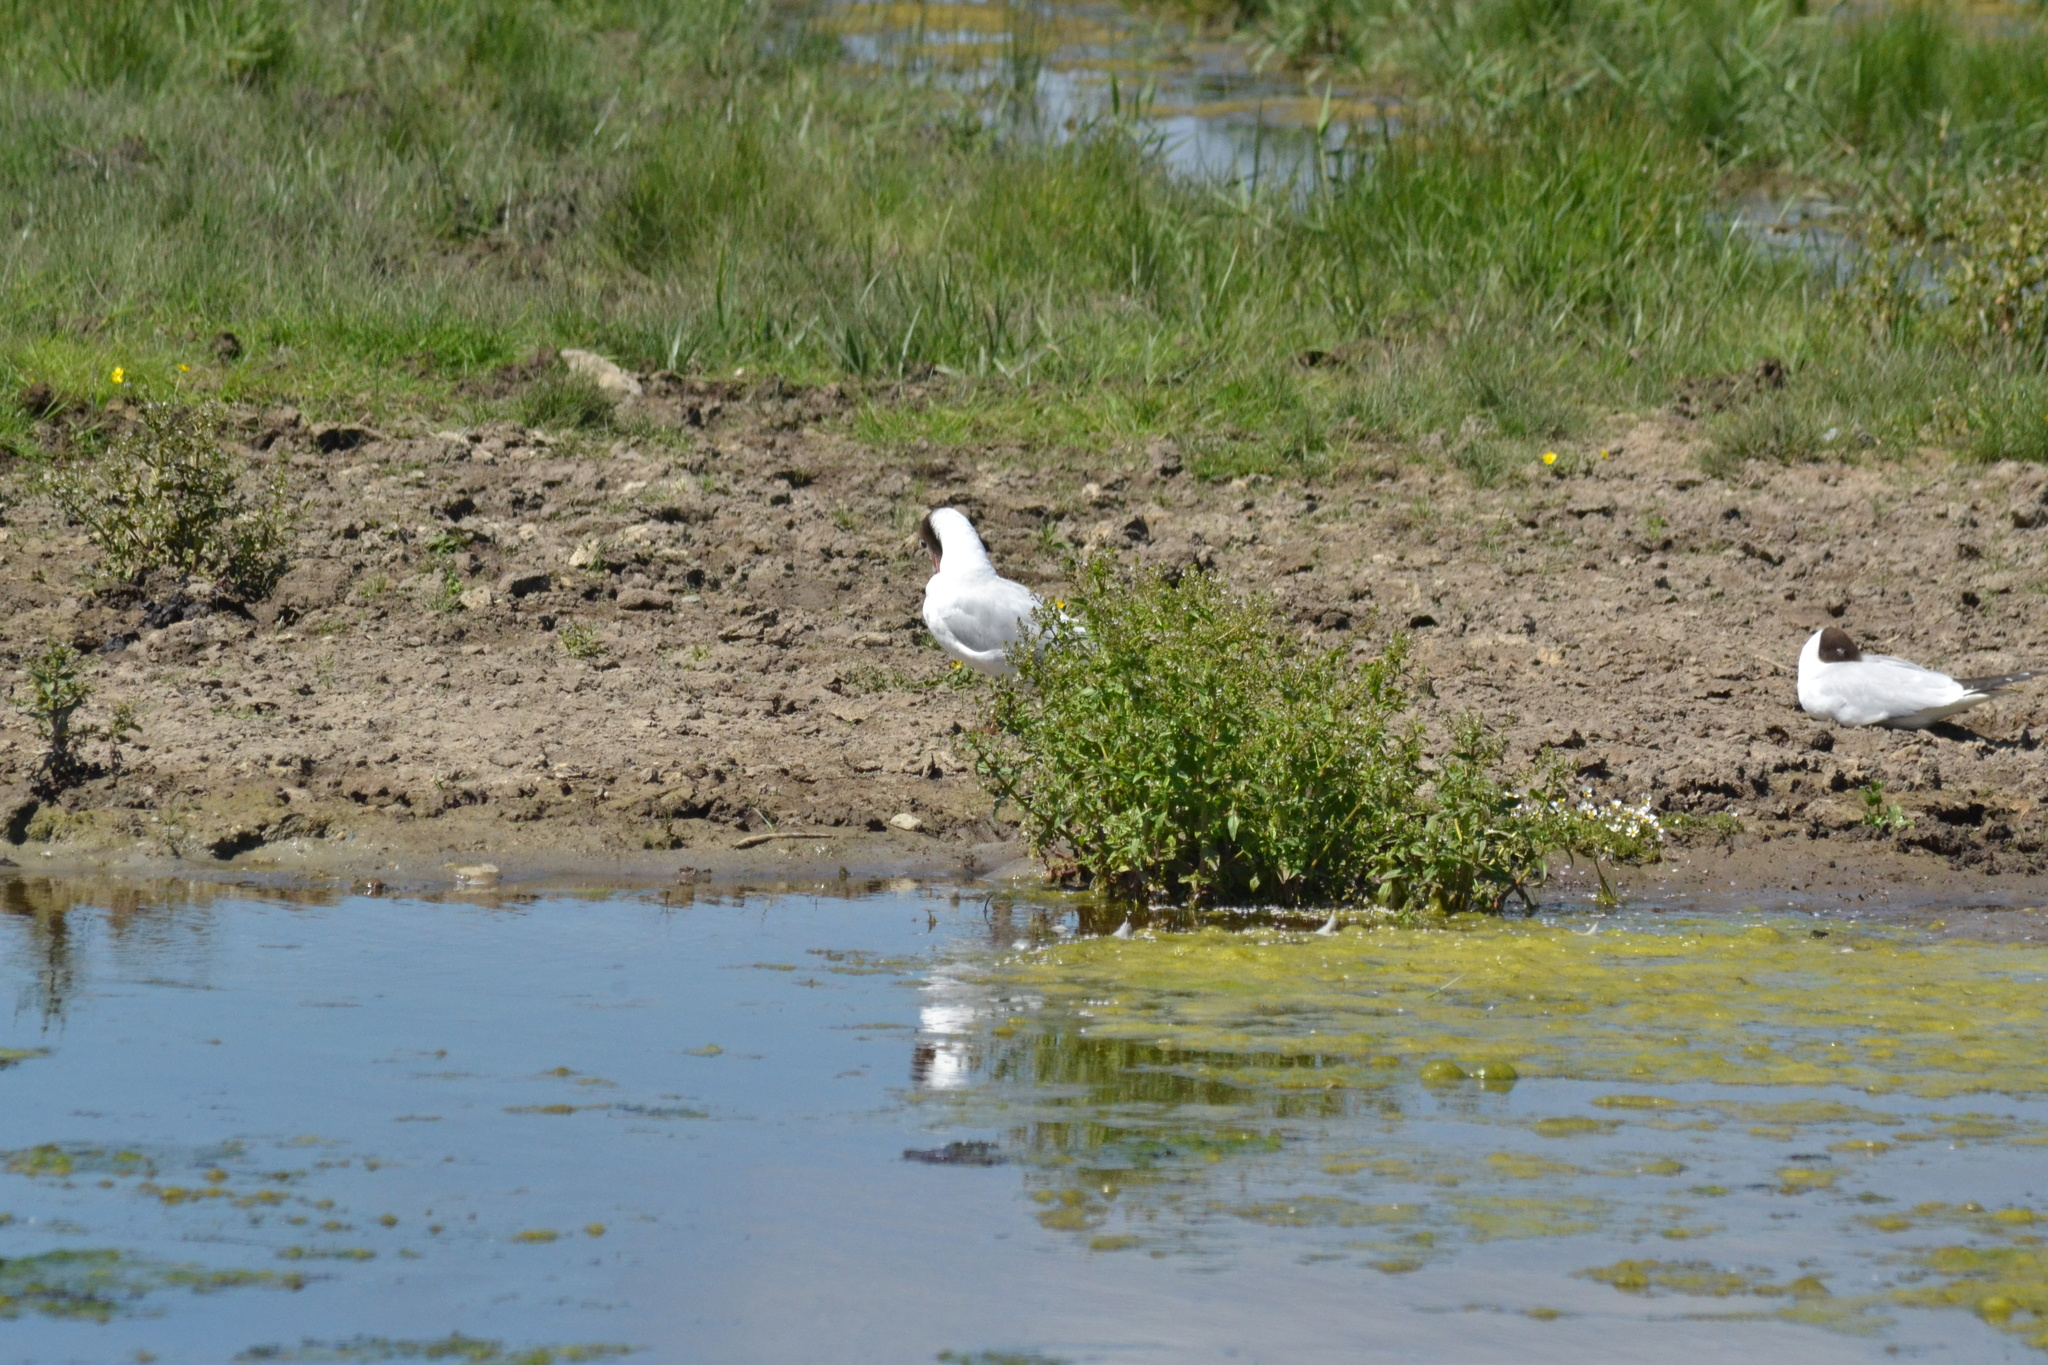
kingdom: Animalia
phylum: Chordata
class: Aves
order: Charadriiformes
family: Laridae
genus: Chroicocephalus
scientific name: Chroicocephalus ridibundus
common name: Black-headed gull
